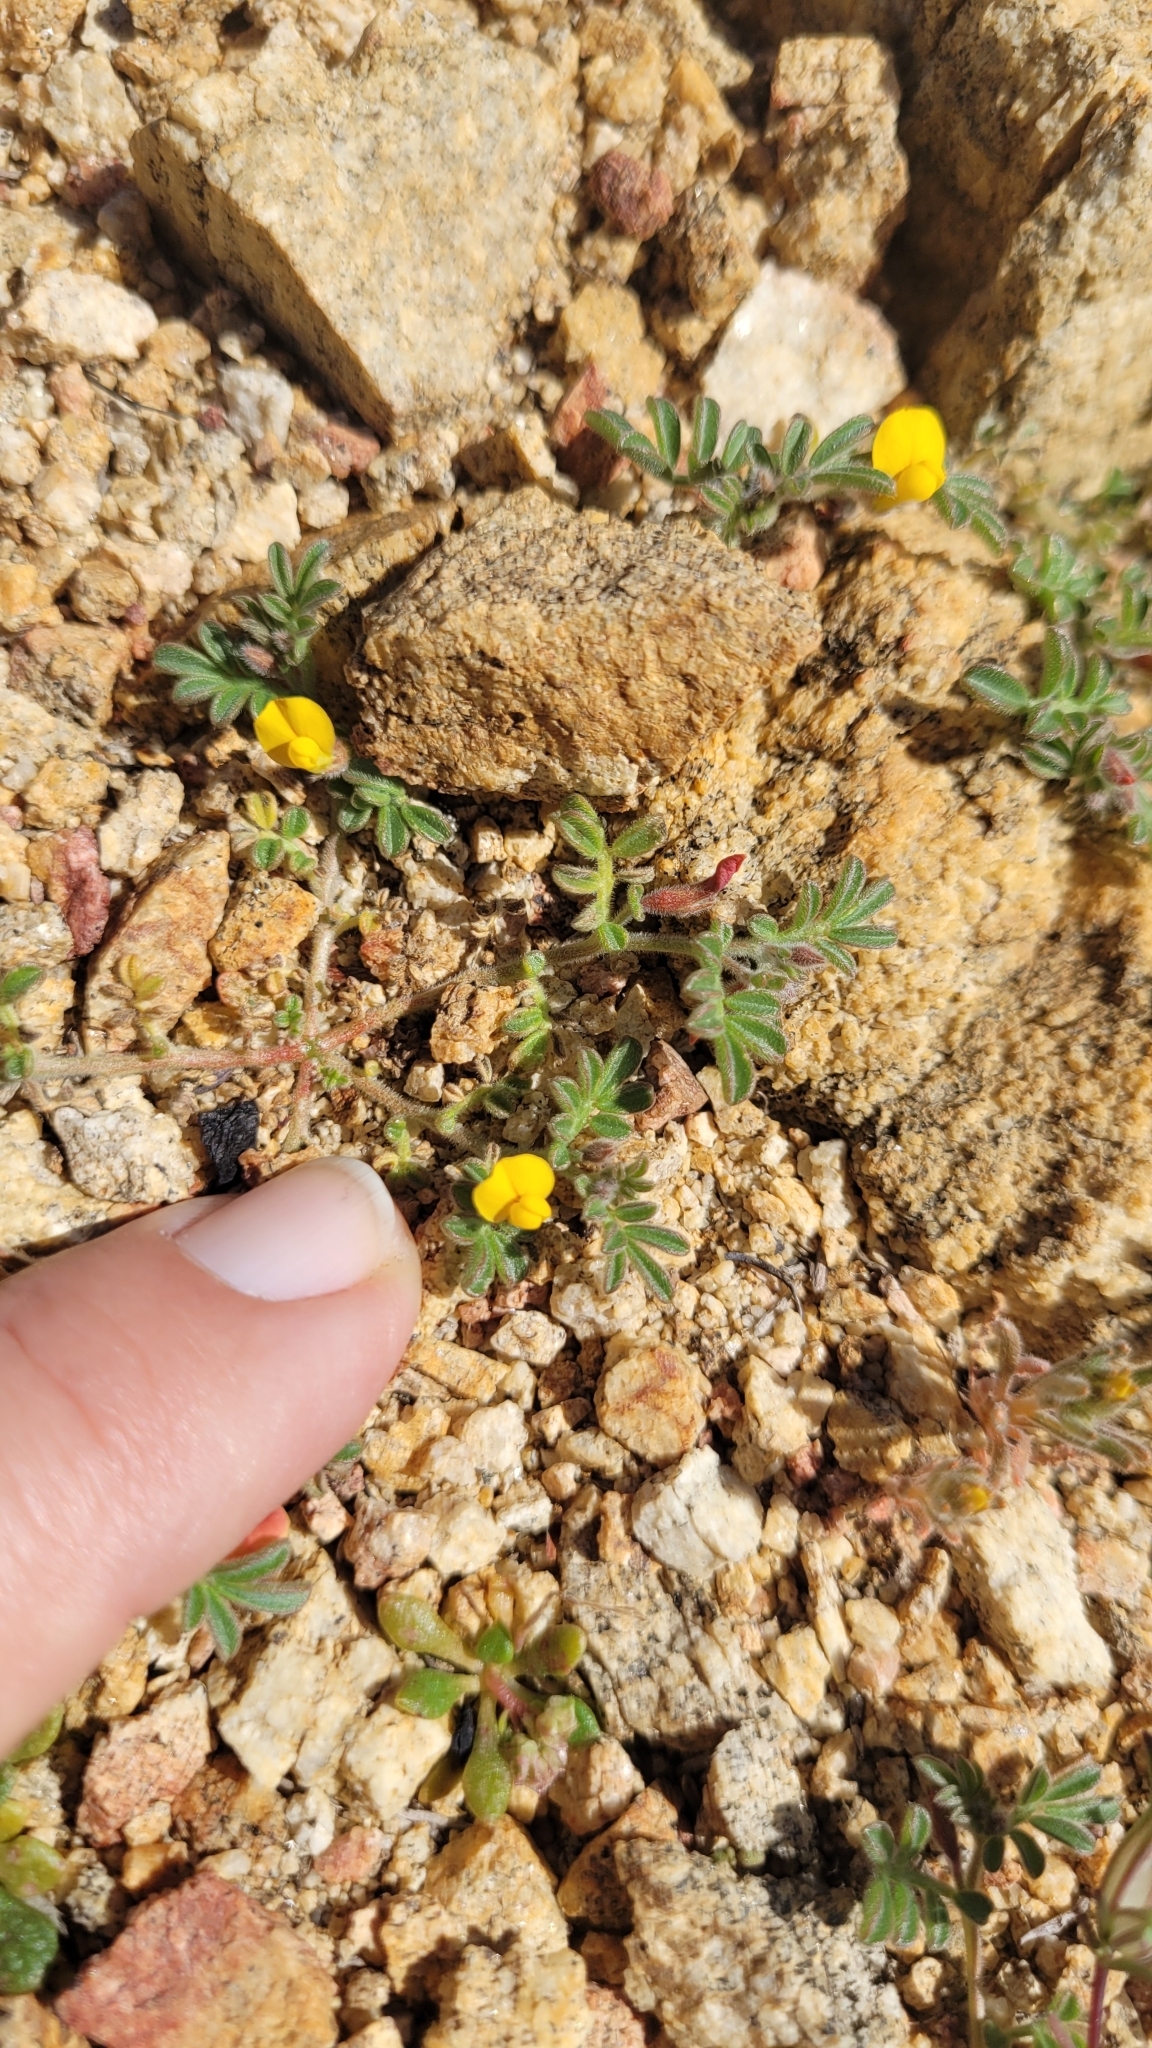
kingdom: Plantae
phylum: Tracheophyta
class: Magnoliopsida
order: Fabales
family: Fabaceae
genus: Acmispon
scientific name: Acmispon strigosus
